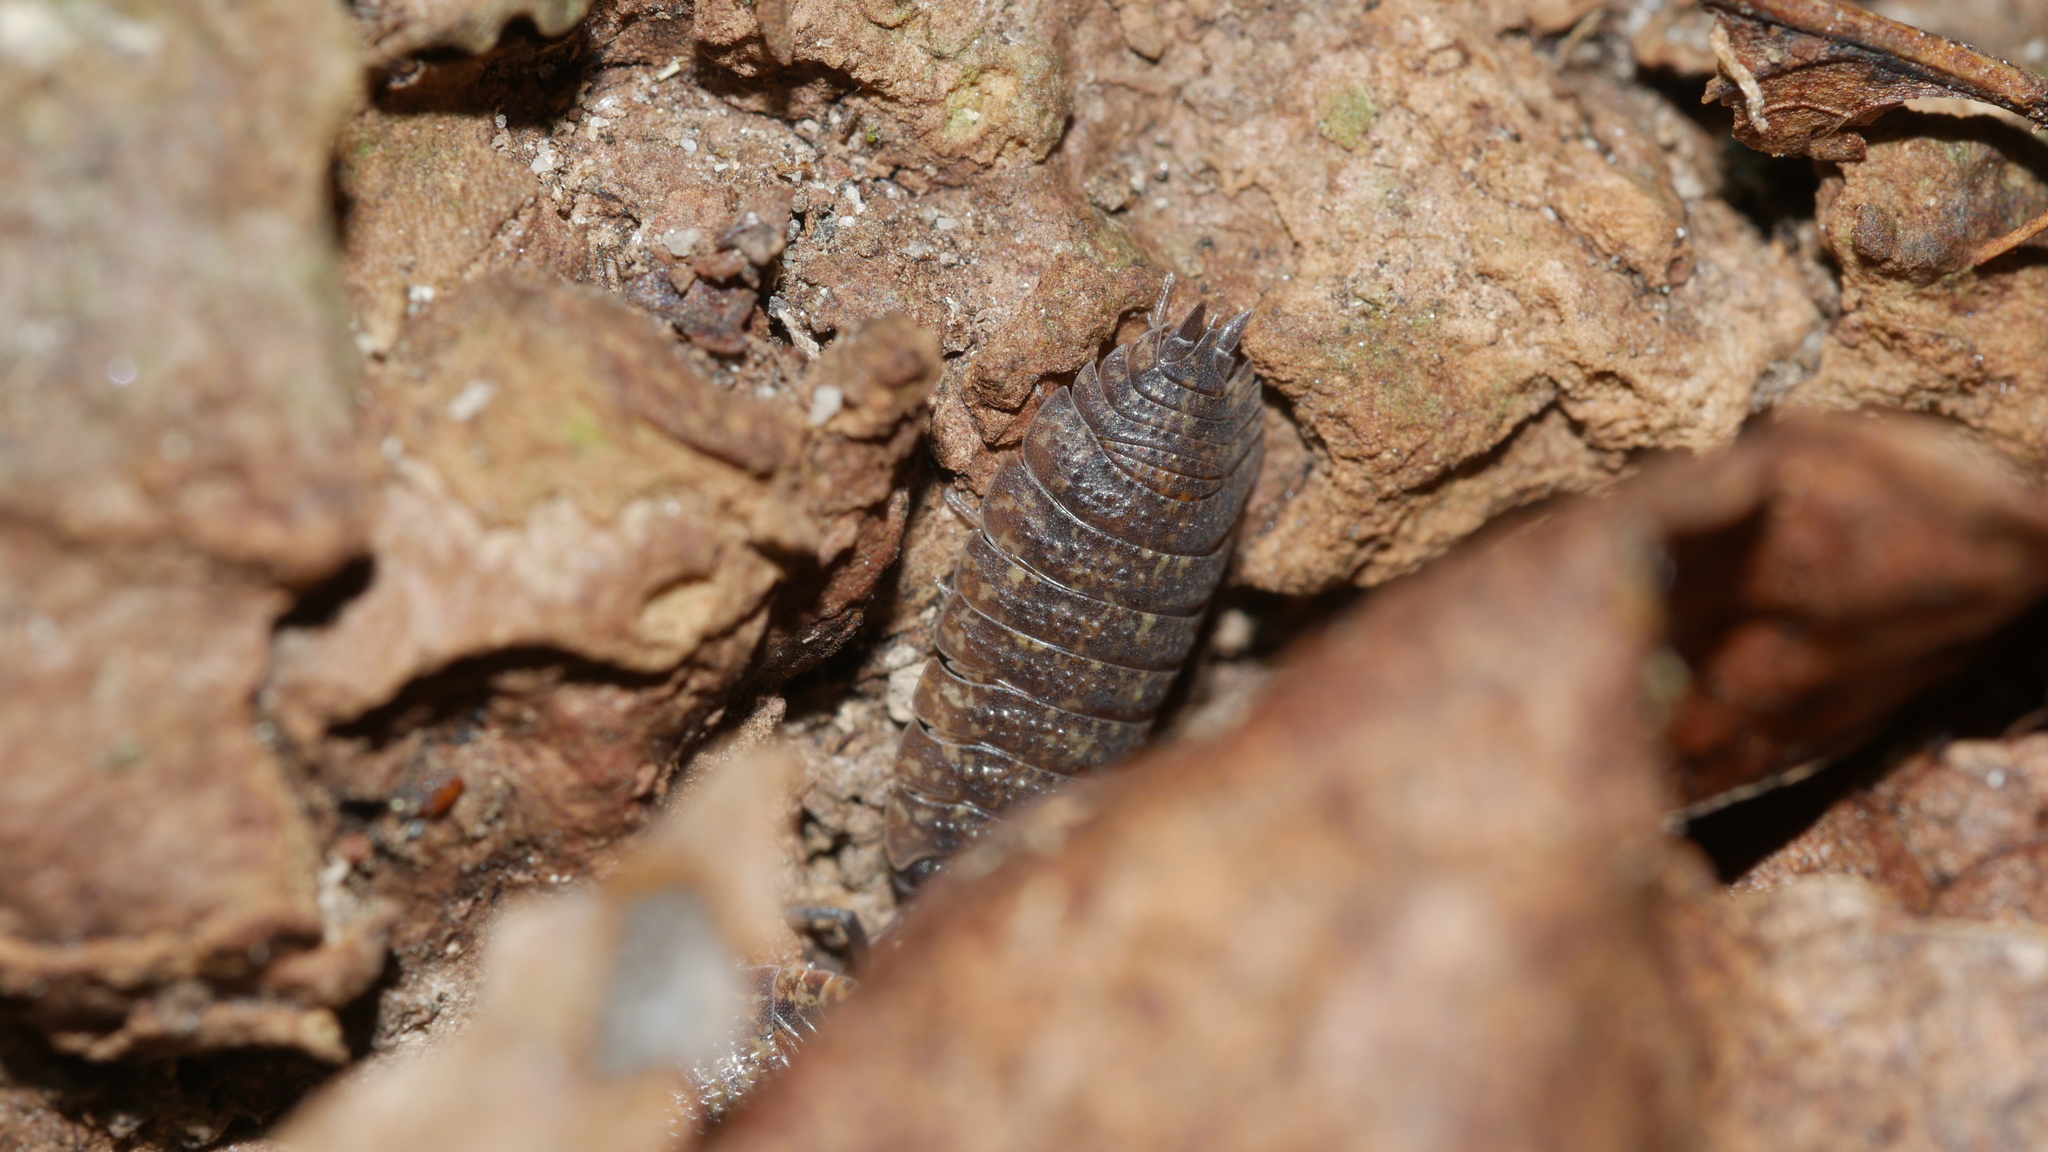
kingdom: Animalia
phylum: Arthropoda
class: Malacostraca
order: Isopoda
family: Porcellionidae
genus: Porcellio
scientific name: Porcellio scaber
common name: Common rough woodlouse
